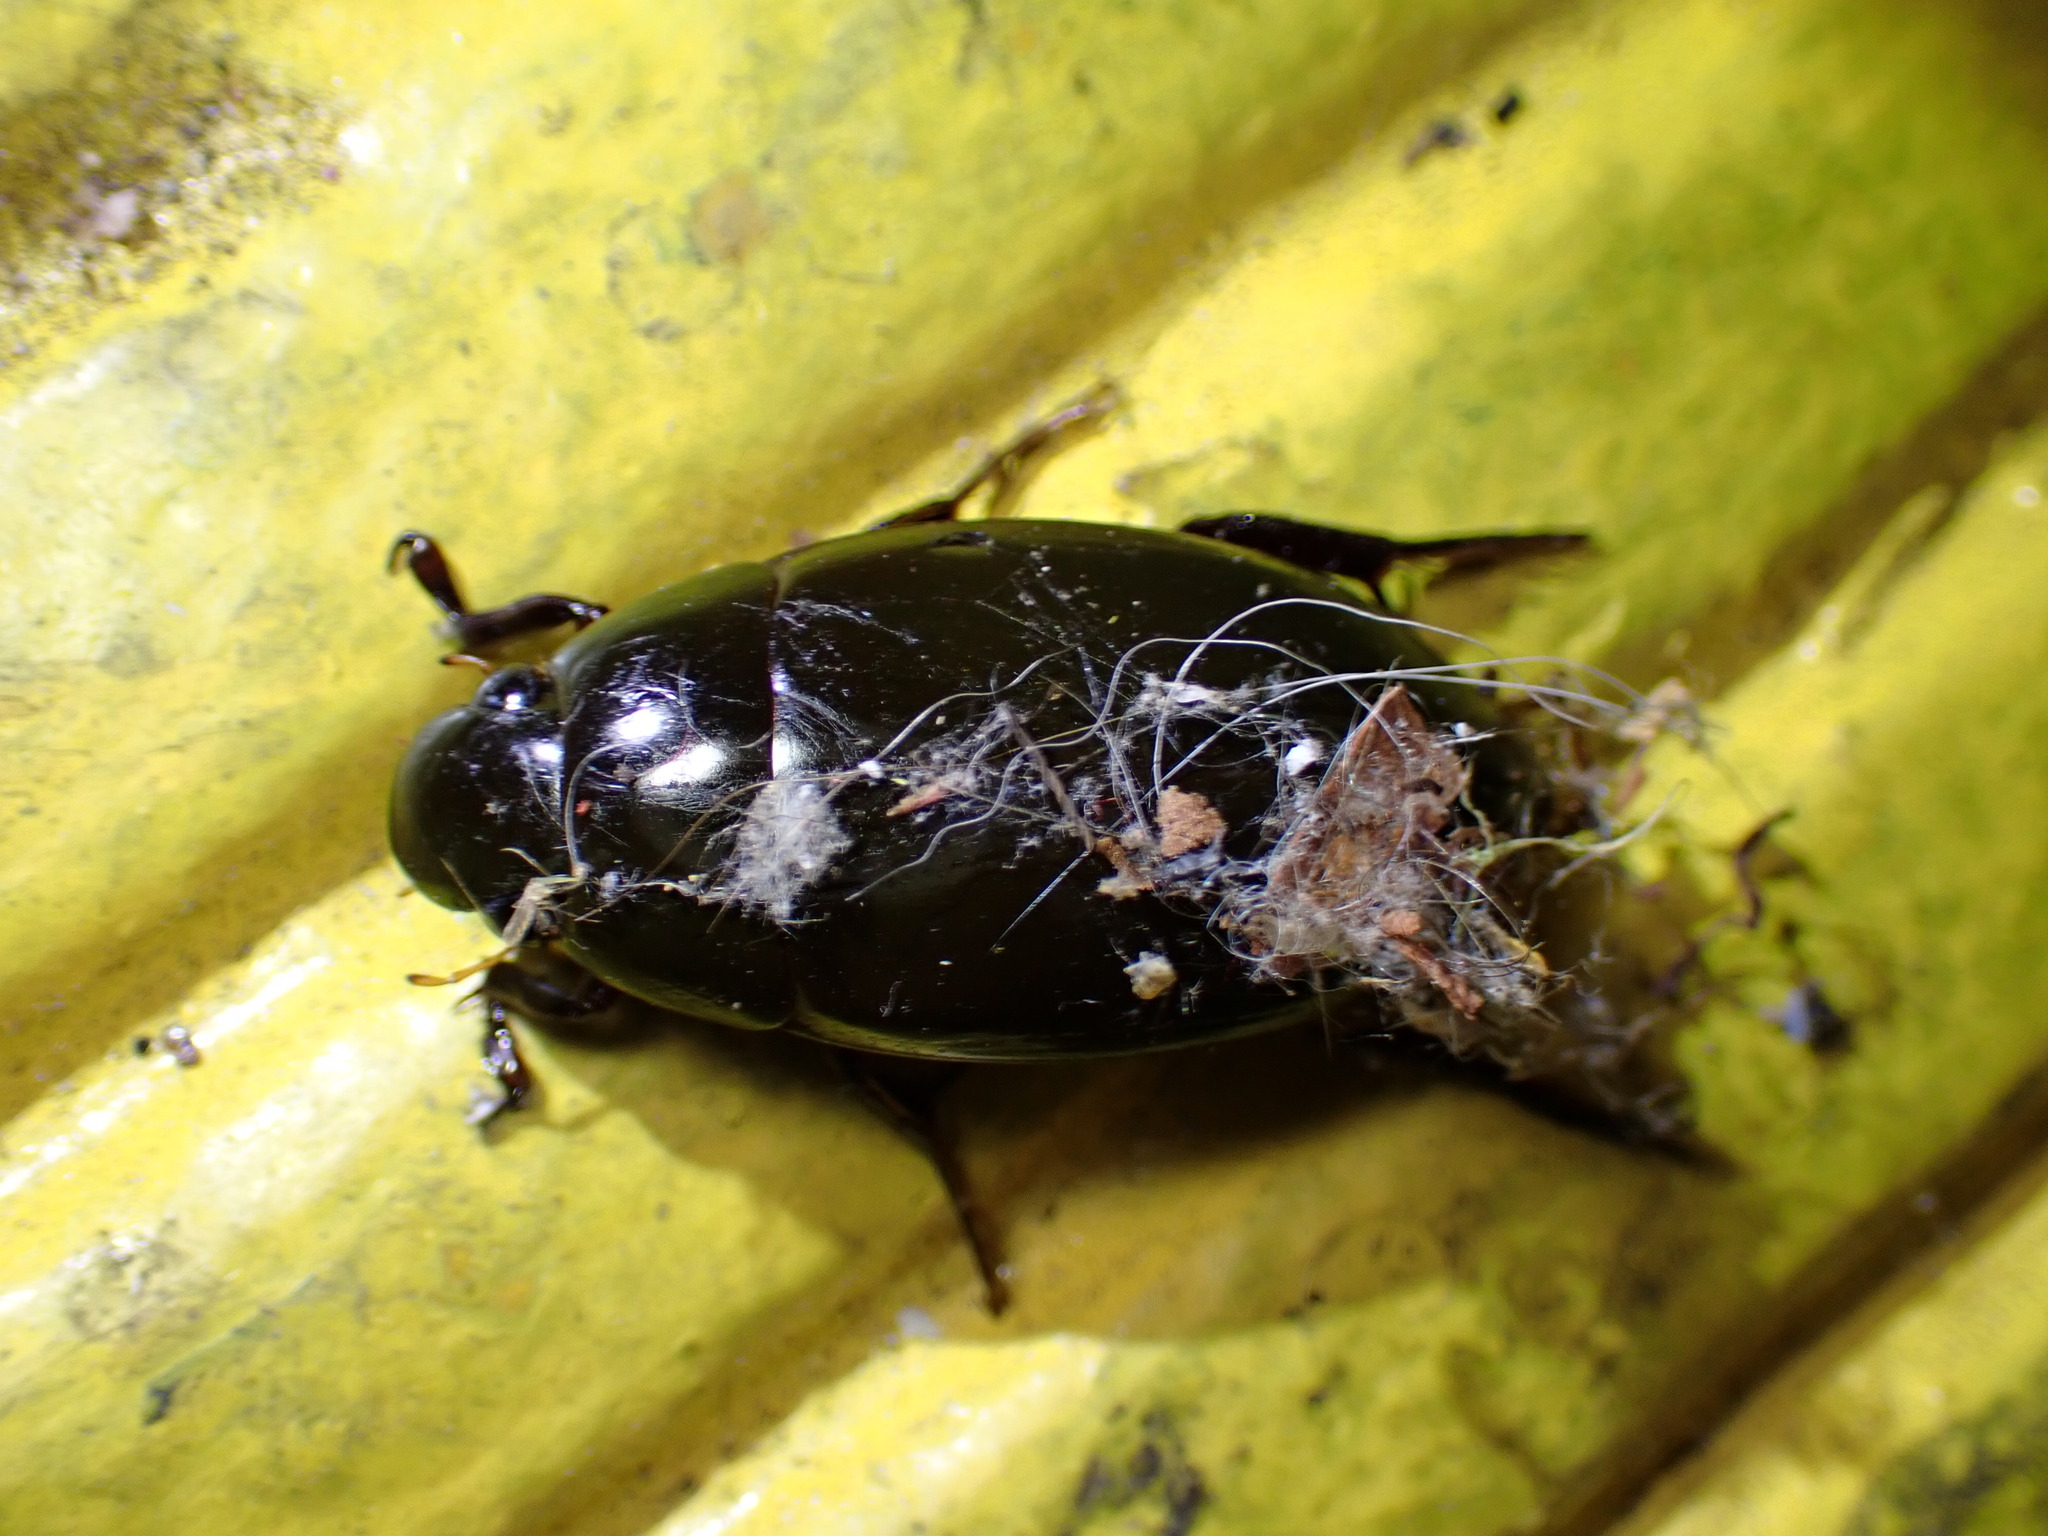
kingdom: Animalia
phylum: Arthropoda
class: Insecta
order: Coleoptera
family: Hydrophilidae
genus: Hydrophilus
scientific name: Hydrophilus triangularis
